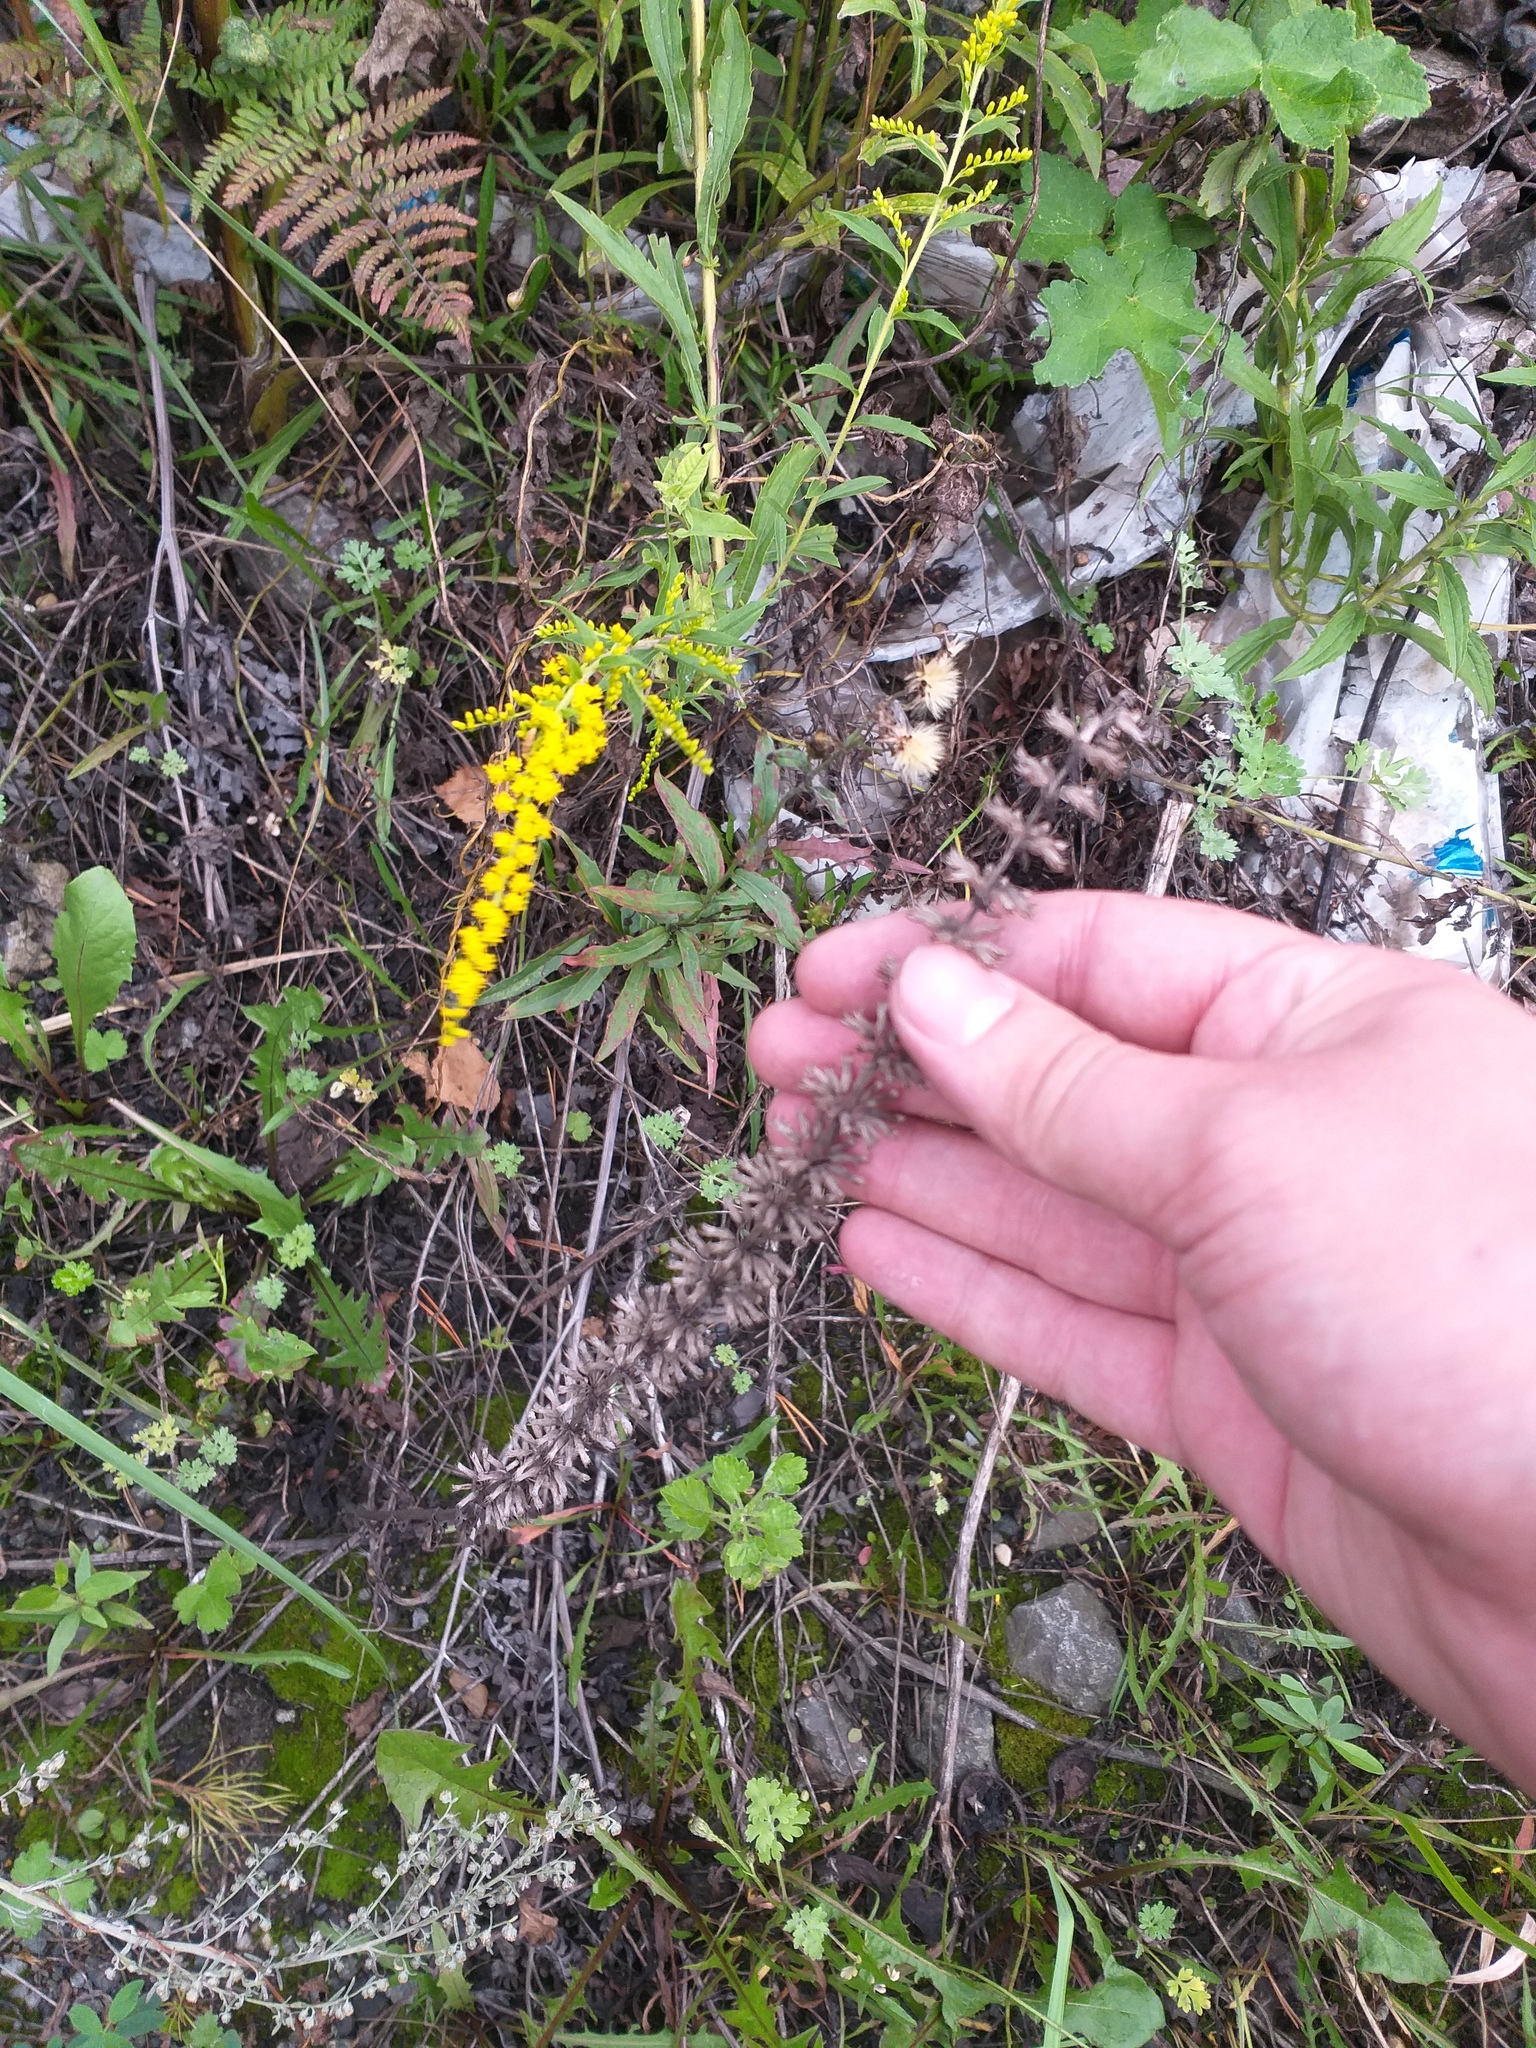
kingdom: Plantae
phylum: Tracheophyta
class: Magnoliopsida
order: Lamiales
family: Lamiaceae
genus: Dracocephalum
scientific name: Dracocephalum thymiflorum
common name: Thymeleaf dragonhead
